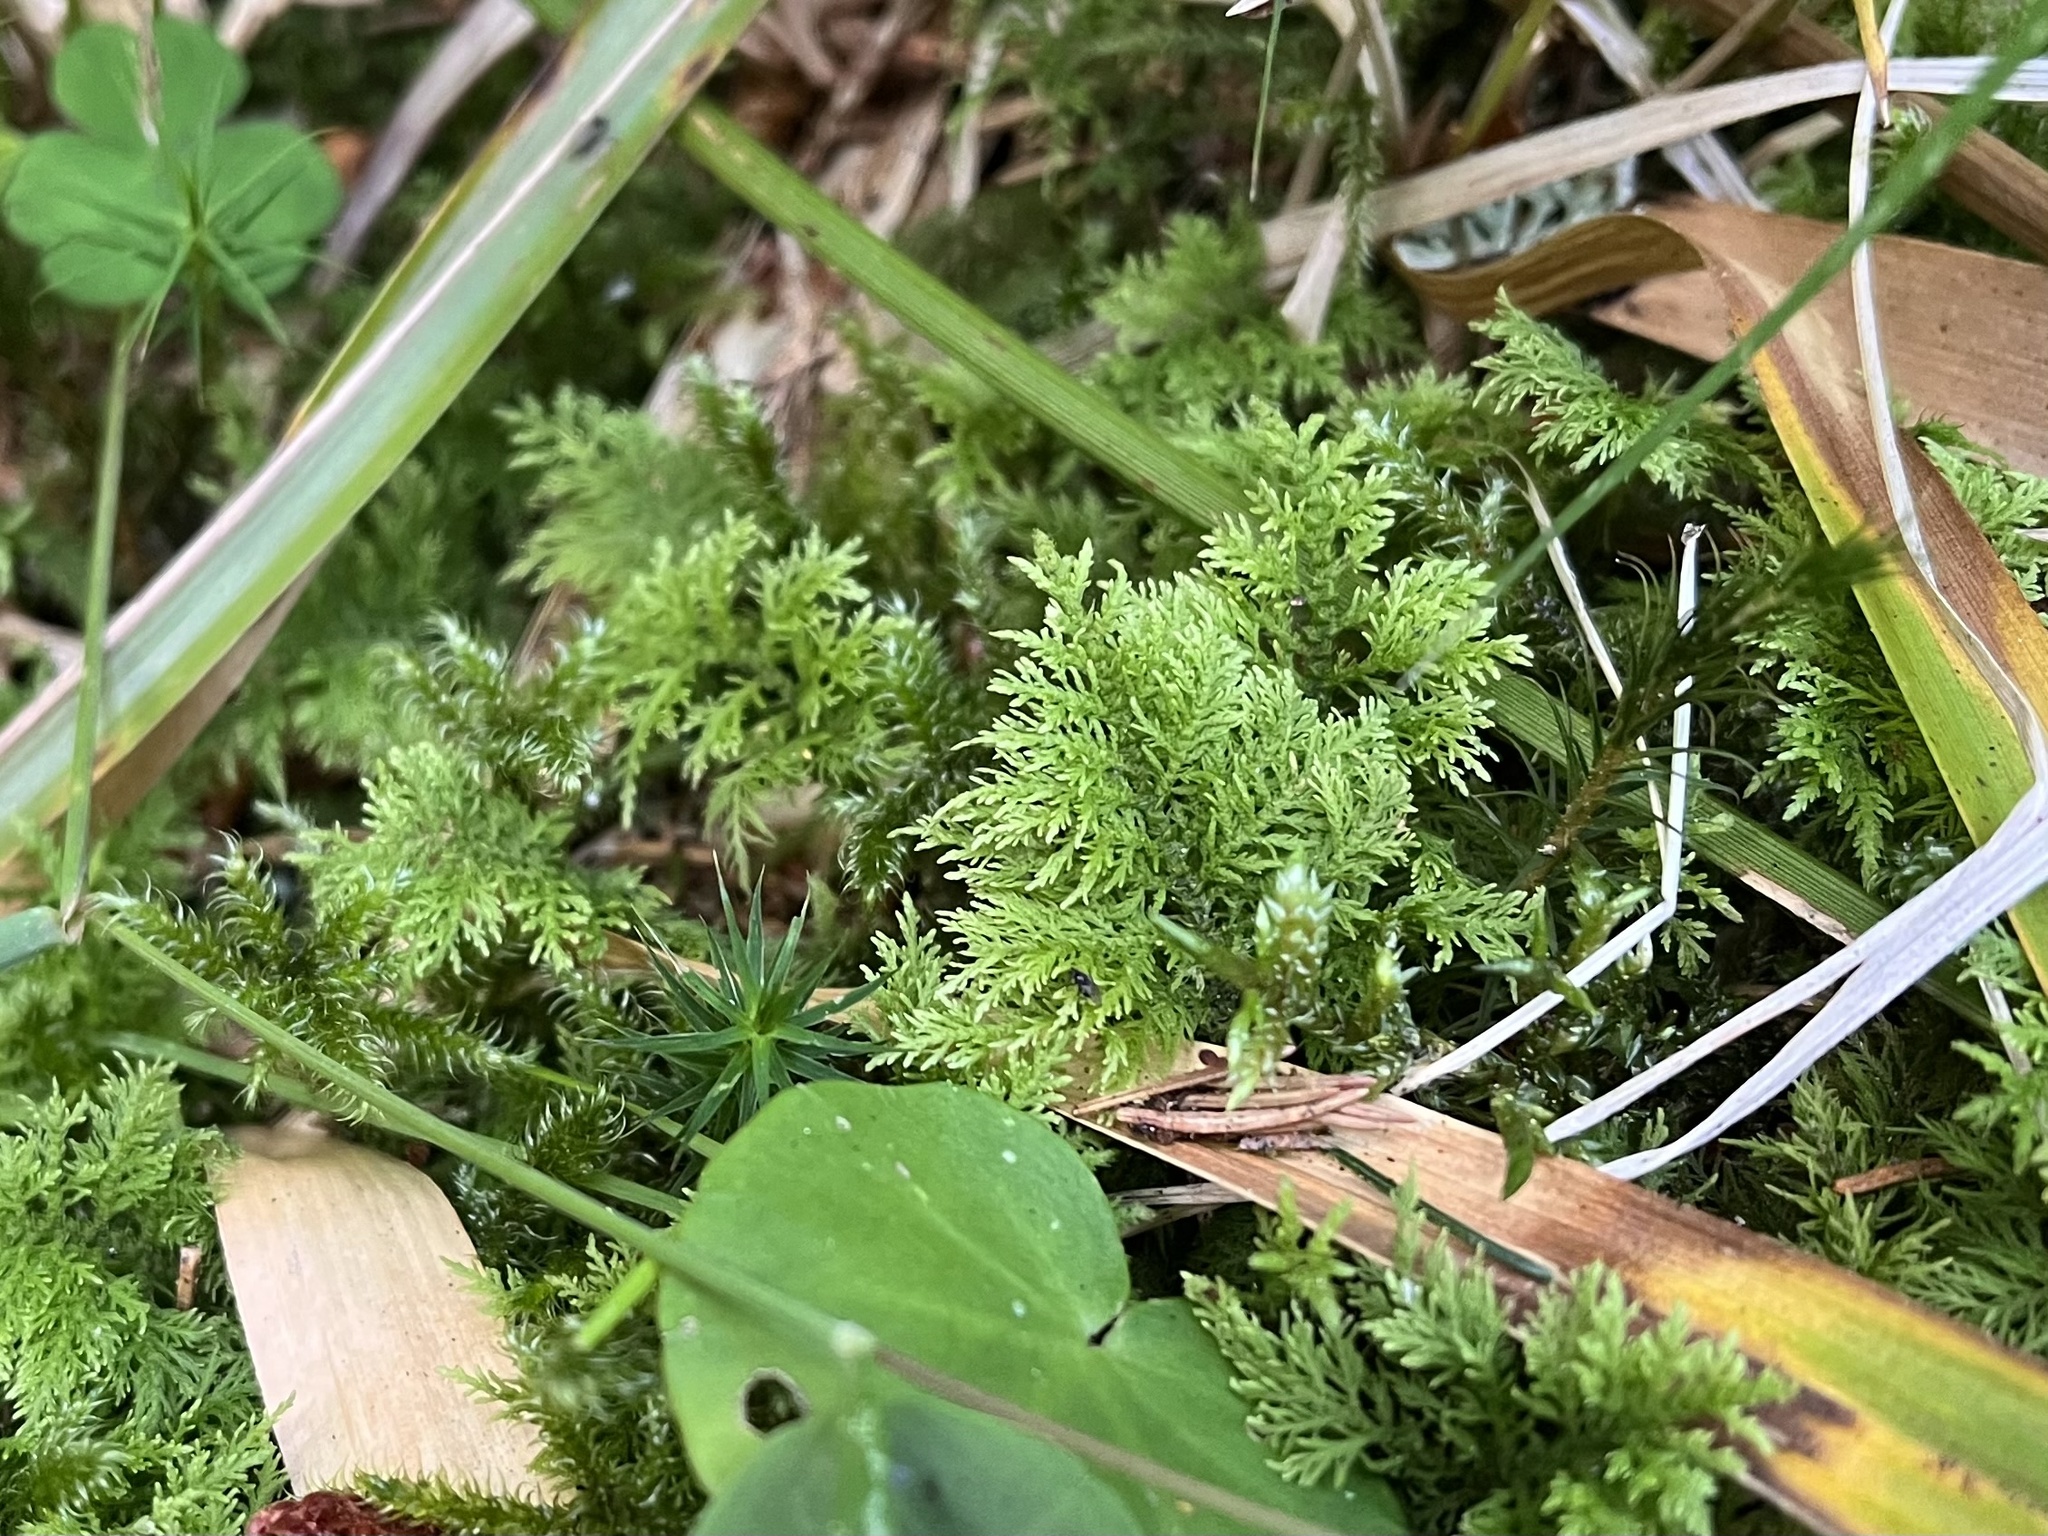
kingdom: Plantae
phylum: Bryophyta
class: Bryopsida
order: Hypnales
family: Thuidiaceae
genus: Thuidium
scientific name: Thuidium tamariscinum
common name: Common tamarisk-moss
